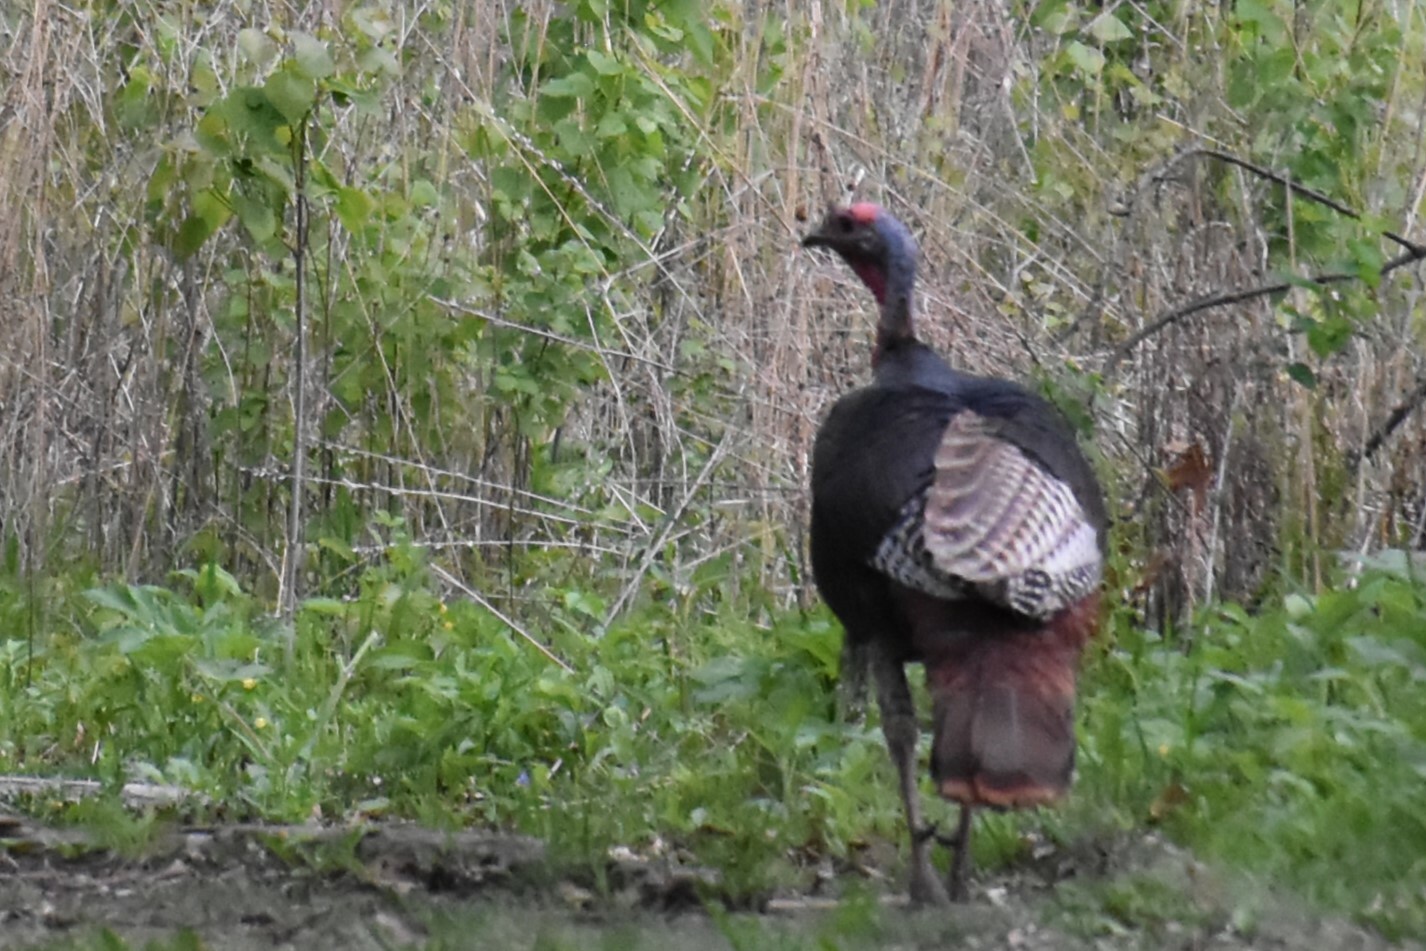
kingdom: Animalia
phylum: Chordata
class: Aves
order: Galliformes
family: Phasianidae
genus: Meleagris
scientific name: Meleagris gallopavo
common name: Wild turkey
